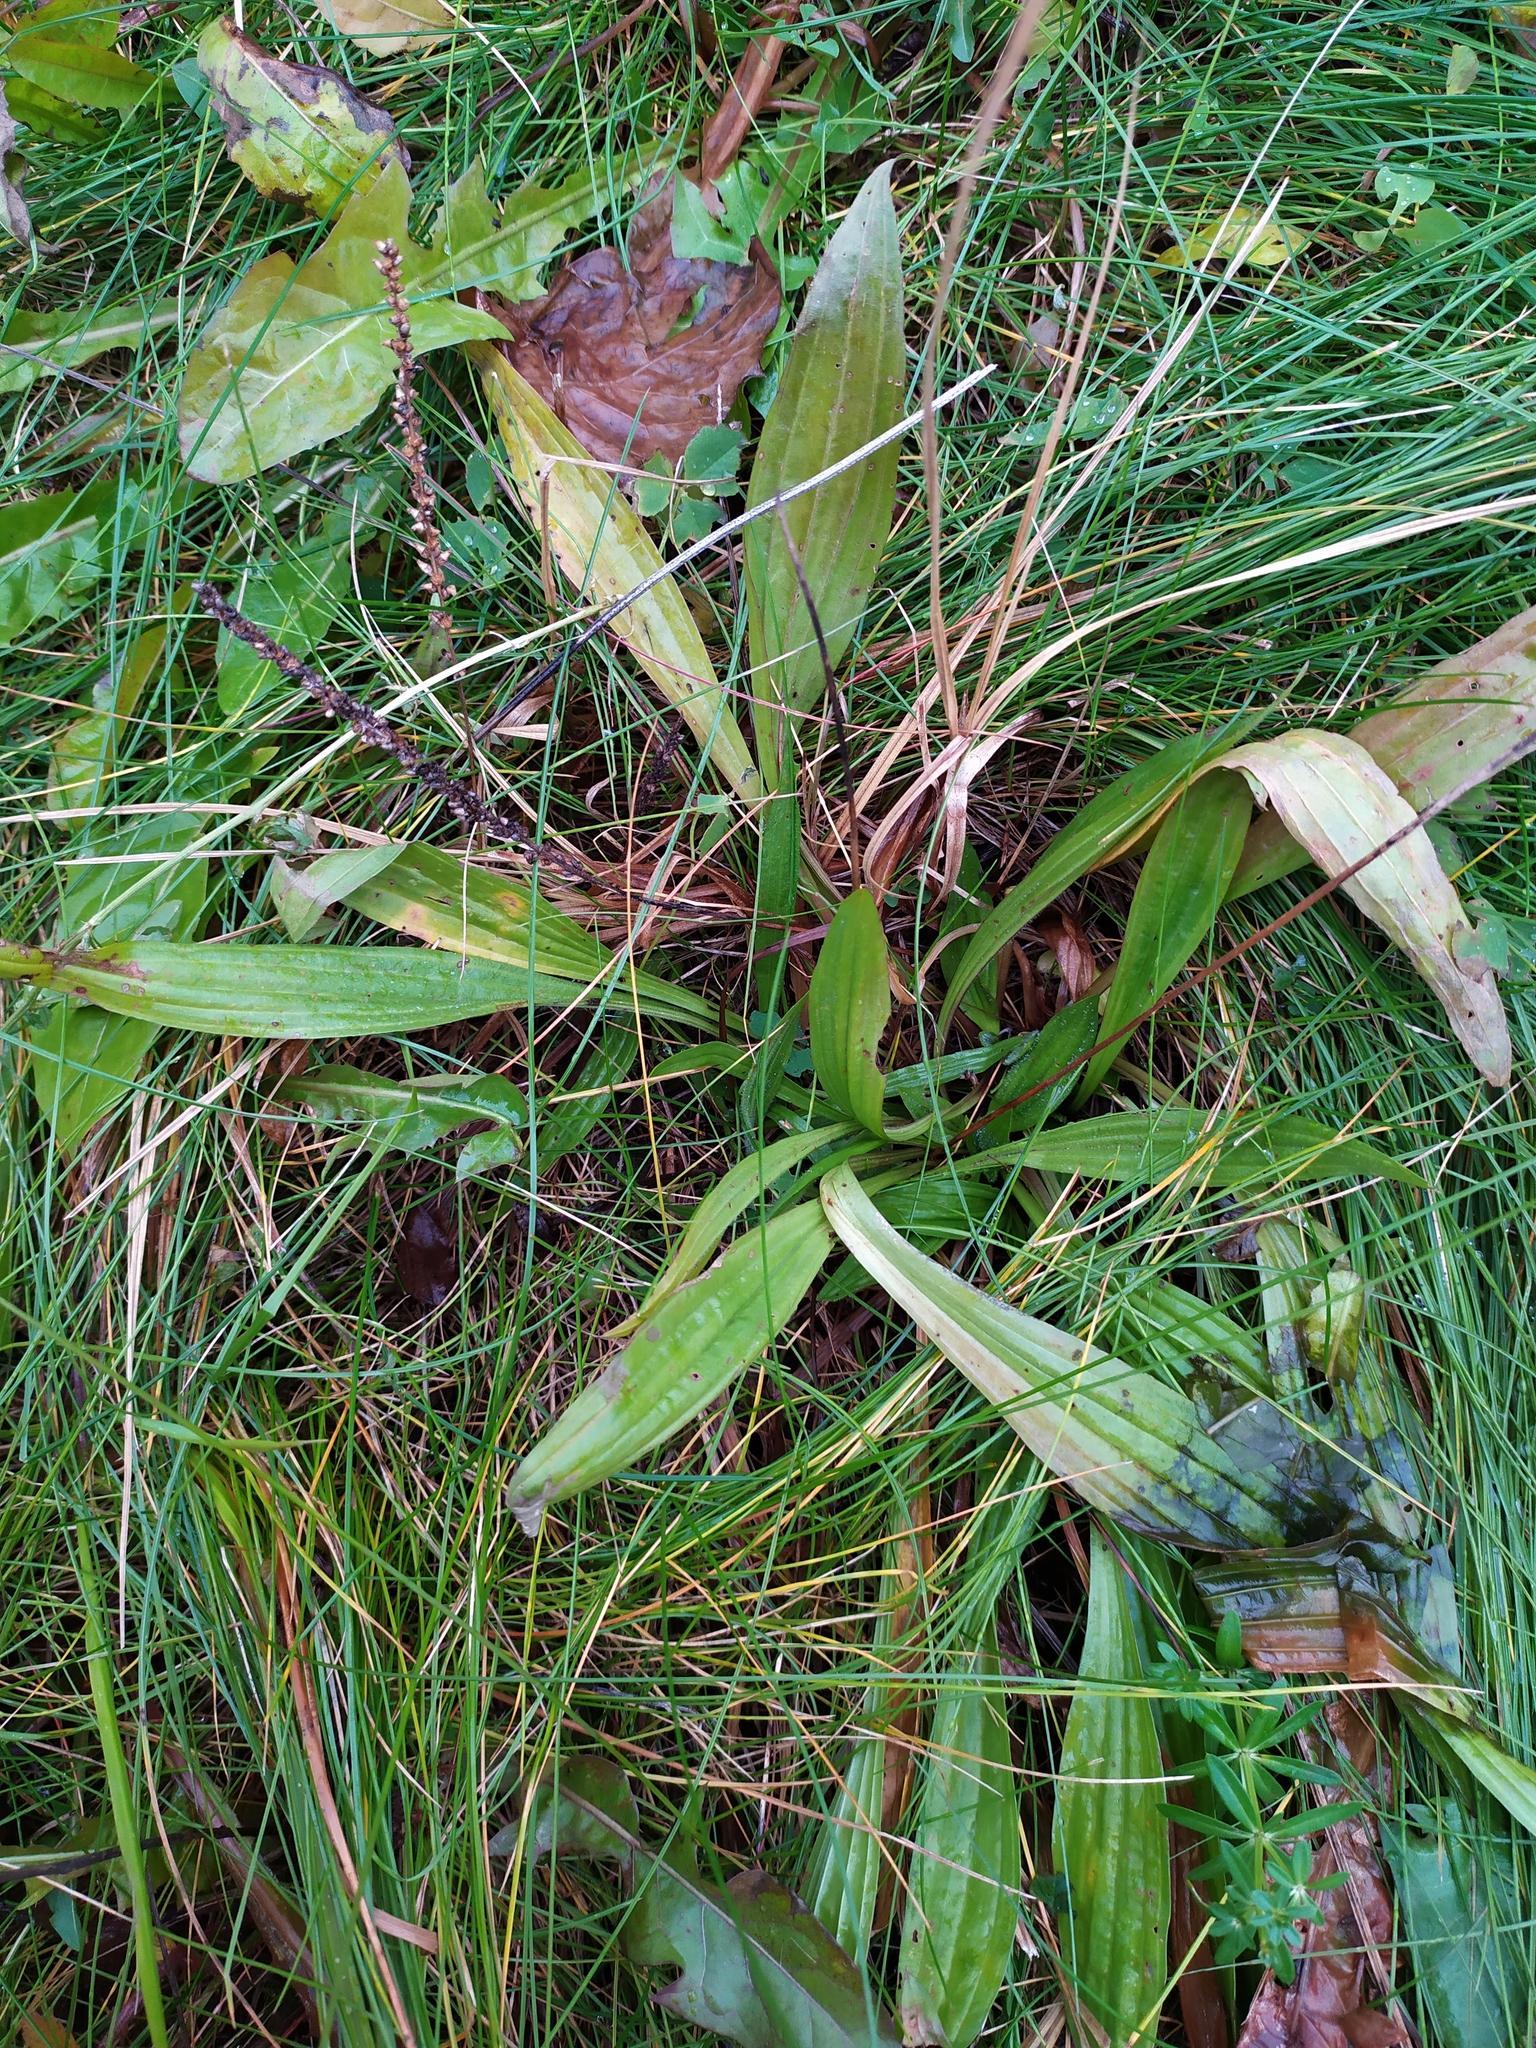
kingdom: Plantae
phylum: Tracheophyta
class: Magnoliopsida
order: Lamiales
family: Plantaginaceae
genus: Plantago
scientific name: Plantago lanceolata
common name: Ribwort plantain
